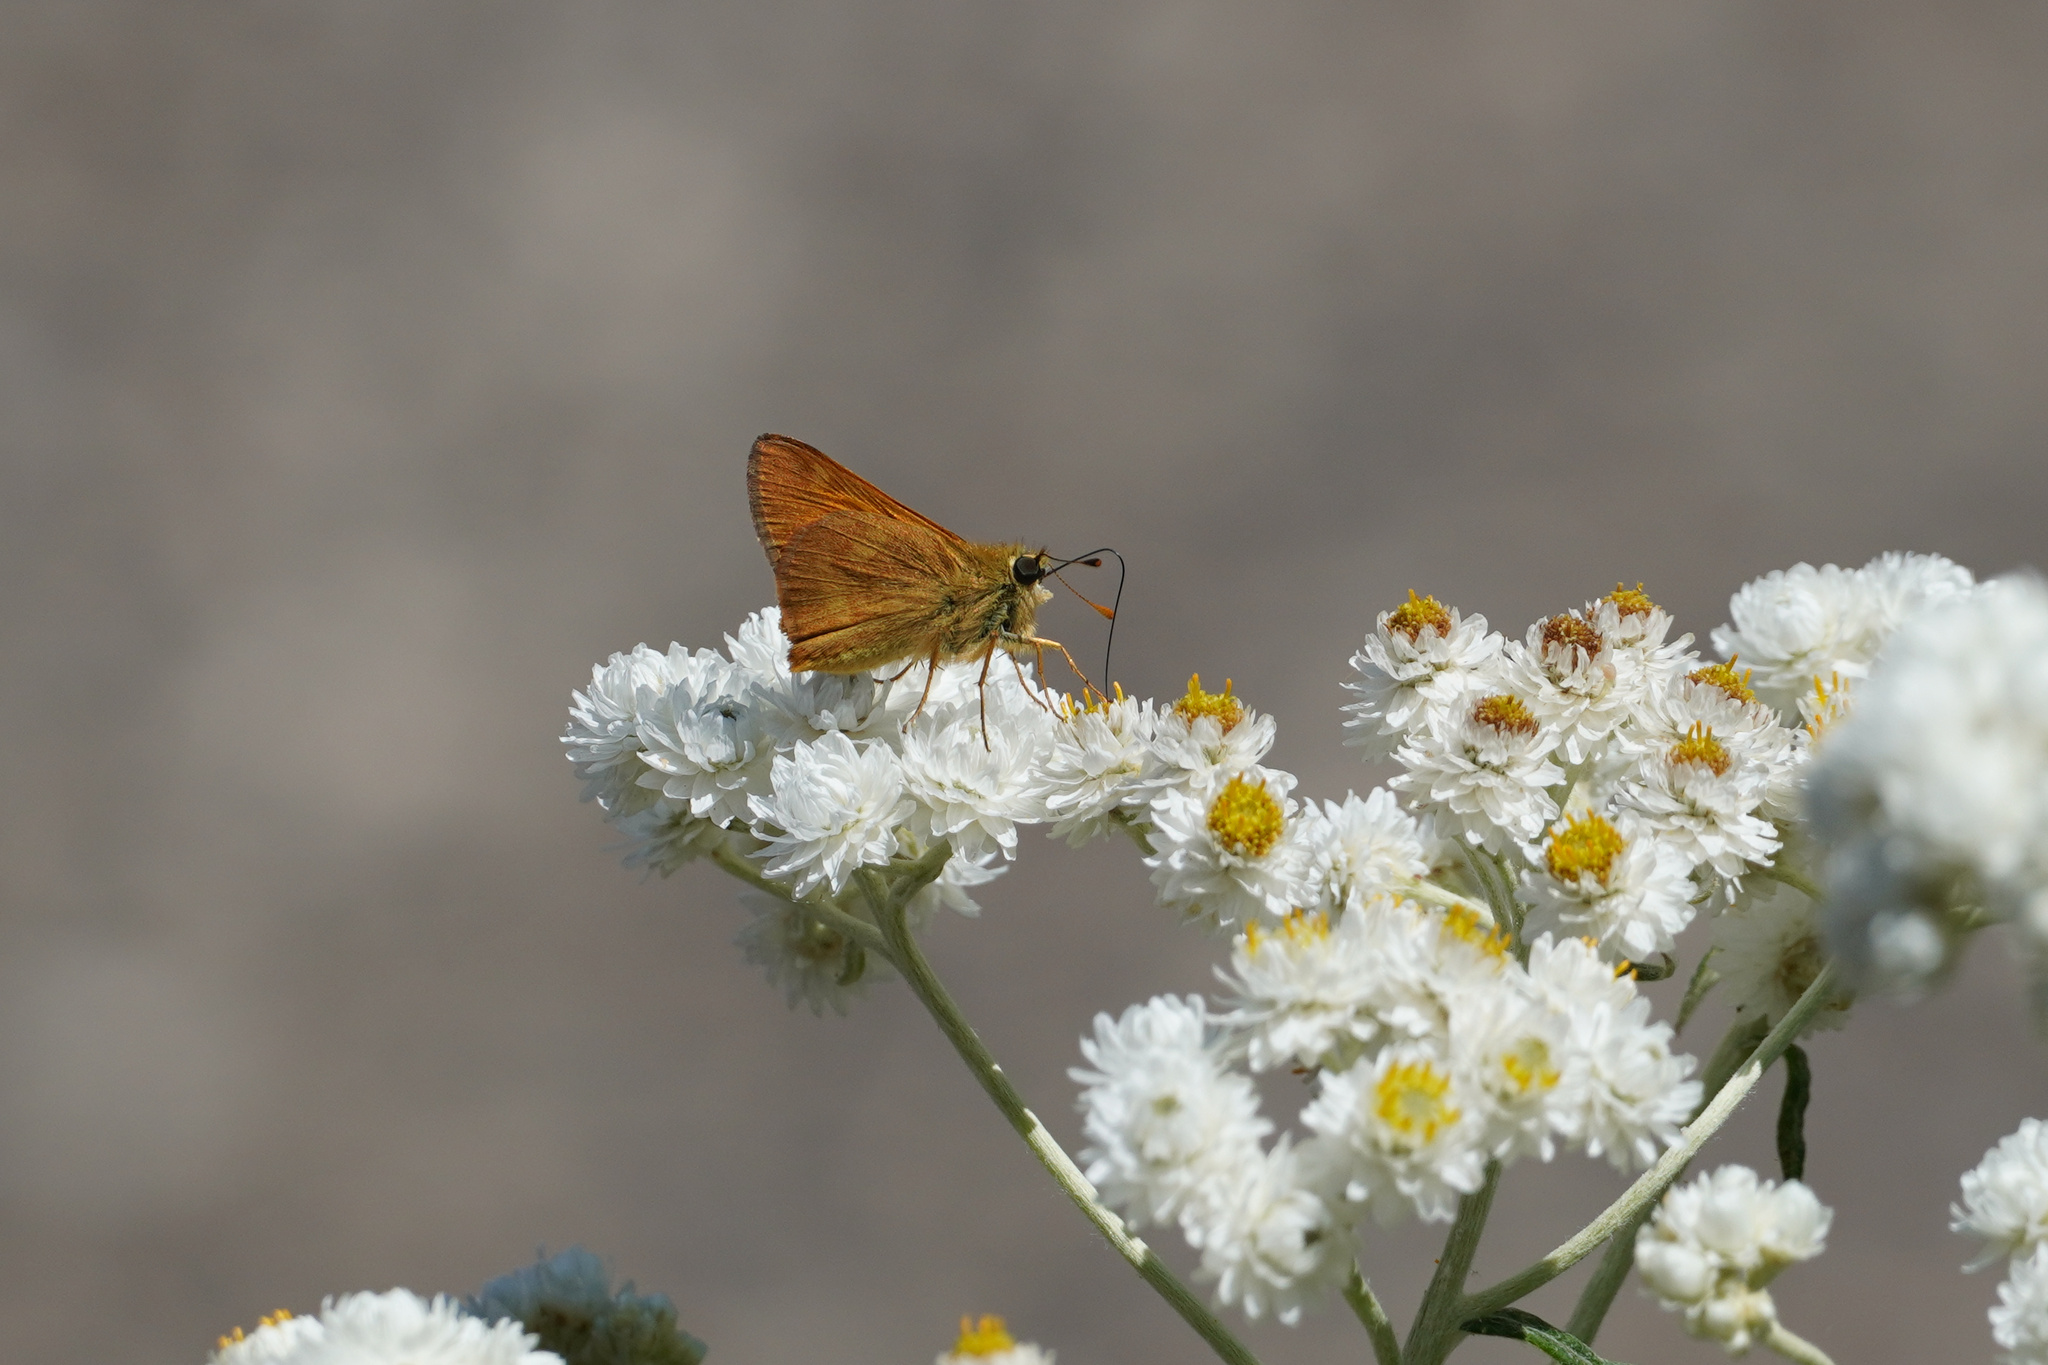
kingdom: Animalia
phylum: Arthropoda
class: Insecta
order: Lepidoptera
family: Hesperiidae
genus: Ochlodes
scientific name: Ochlodes sylvanoides
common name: Woodland skipper
